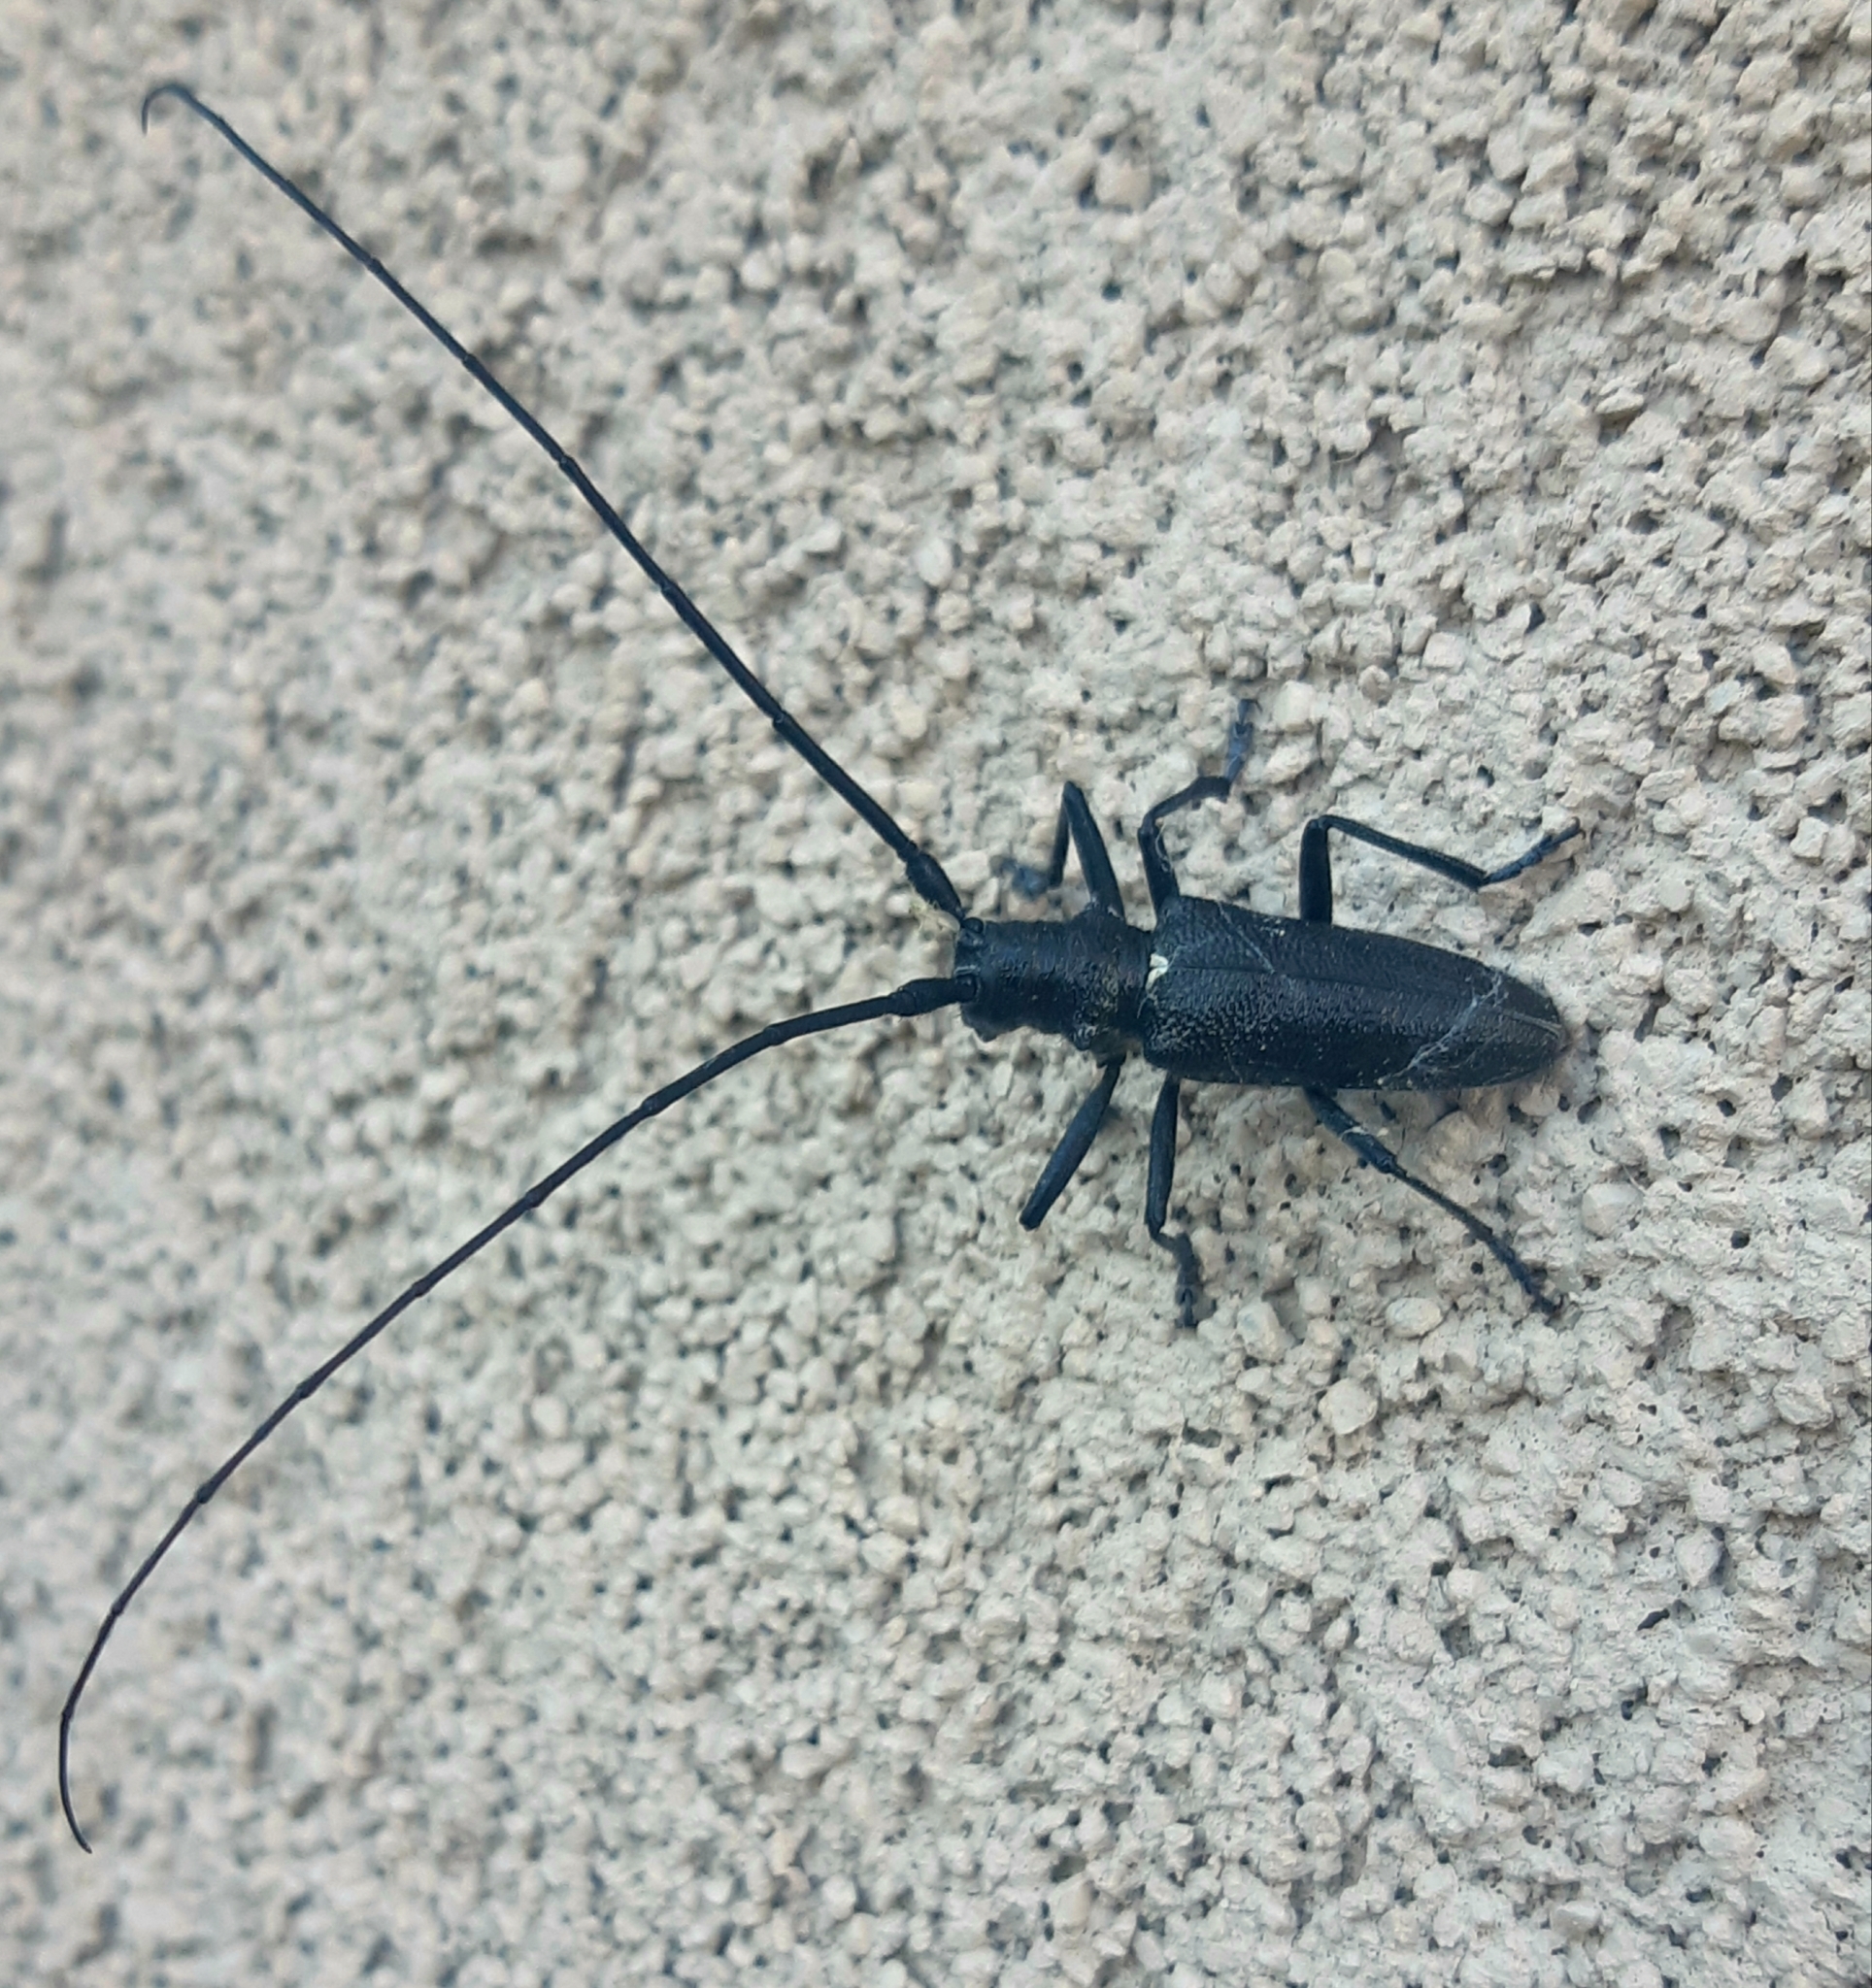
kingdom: Animalia
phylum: Arthropoda
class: Insecta
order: Coleoptera
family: Cerambycidae
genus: Monochamus
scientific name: Monochamus scutellatus
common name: White-spotted sawyer beetle
